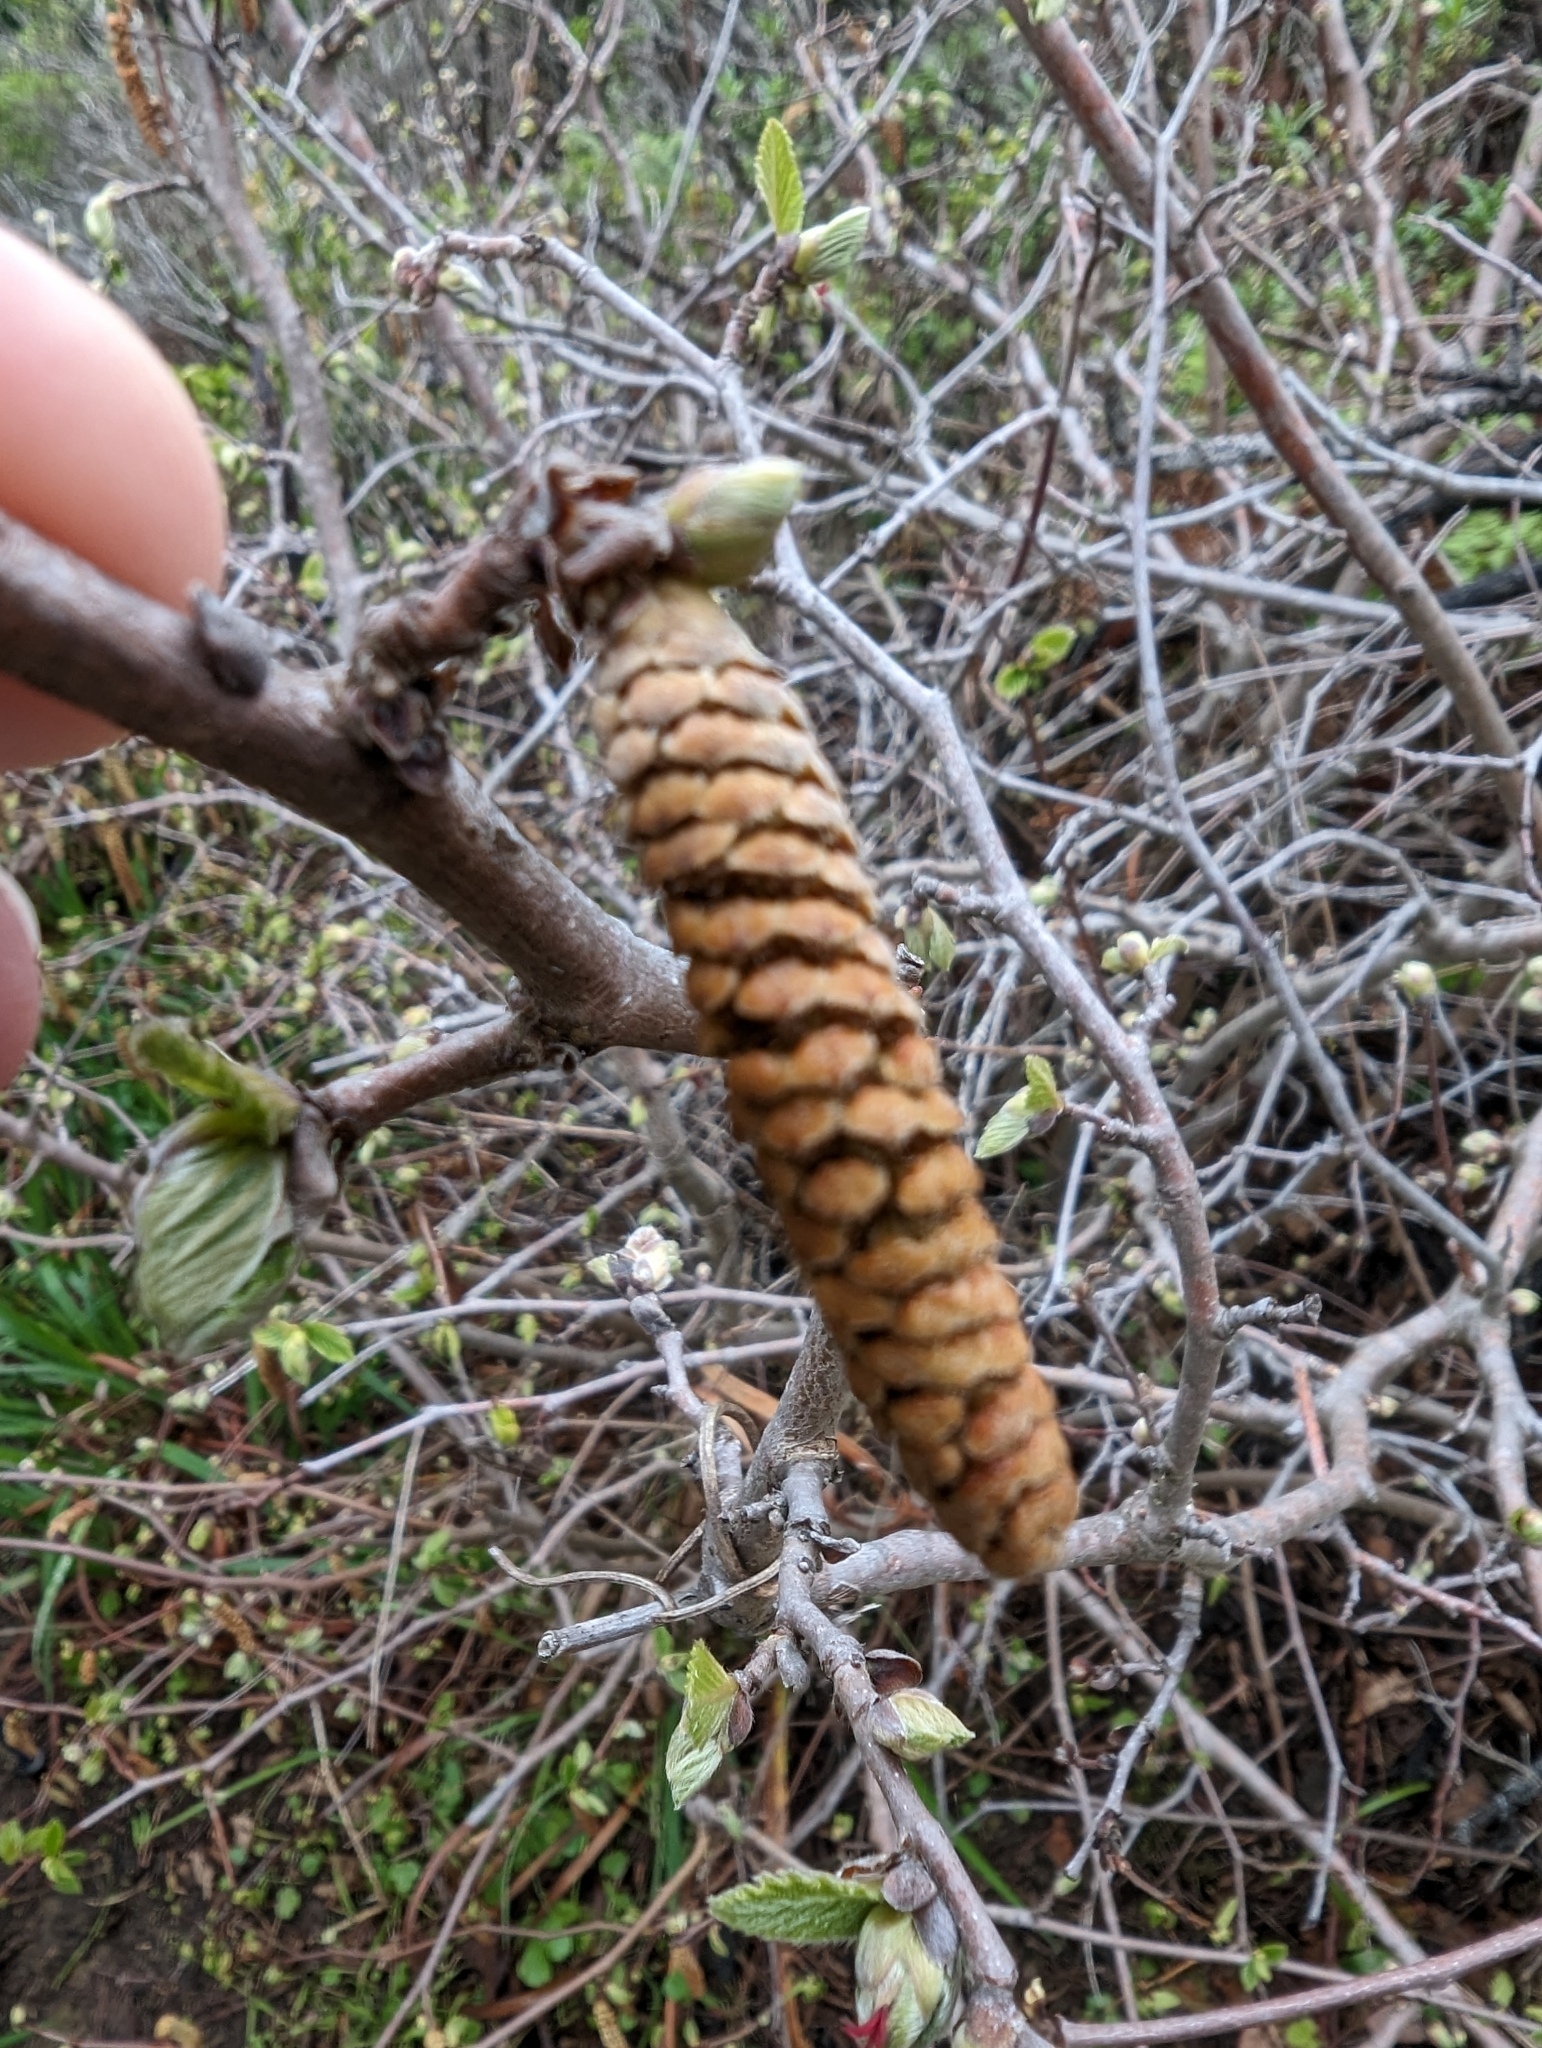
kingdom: Plantae
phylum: Tracheophyta
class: Magnoliopsida
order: Fagales
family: Betulaceae
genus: Corylus
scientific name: Corylus cornuta
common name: Beaked hazel
